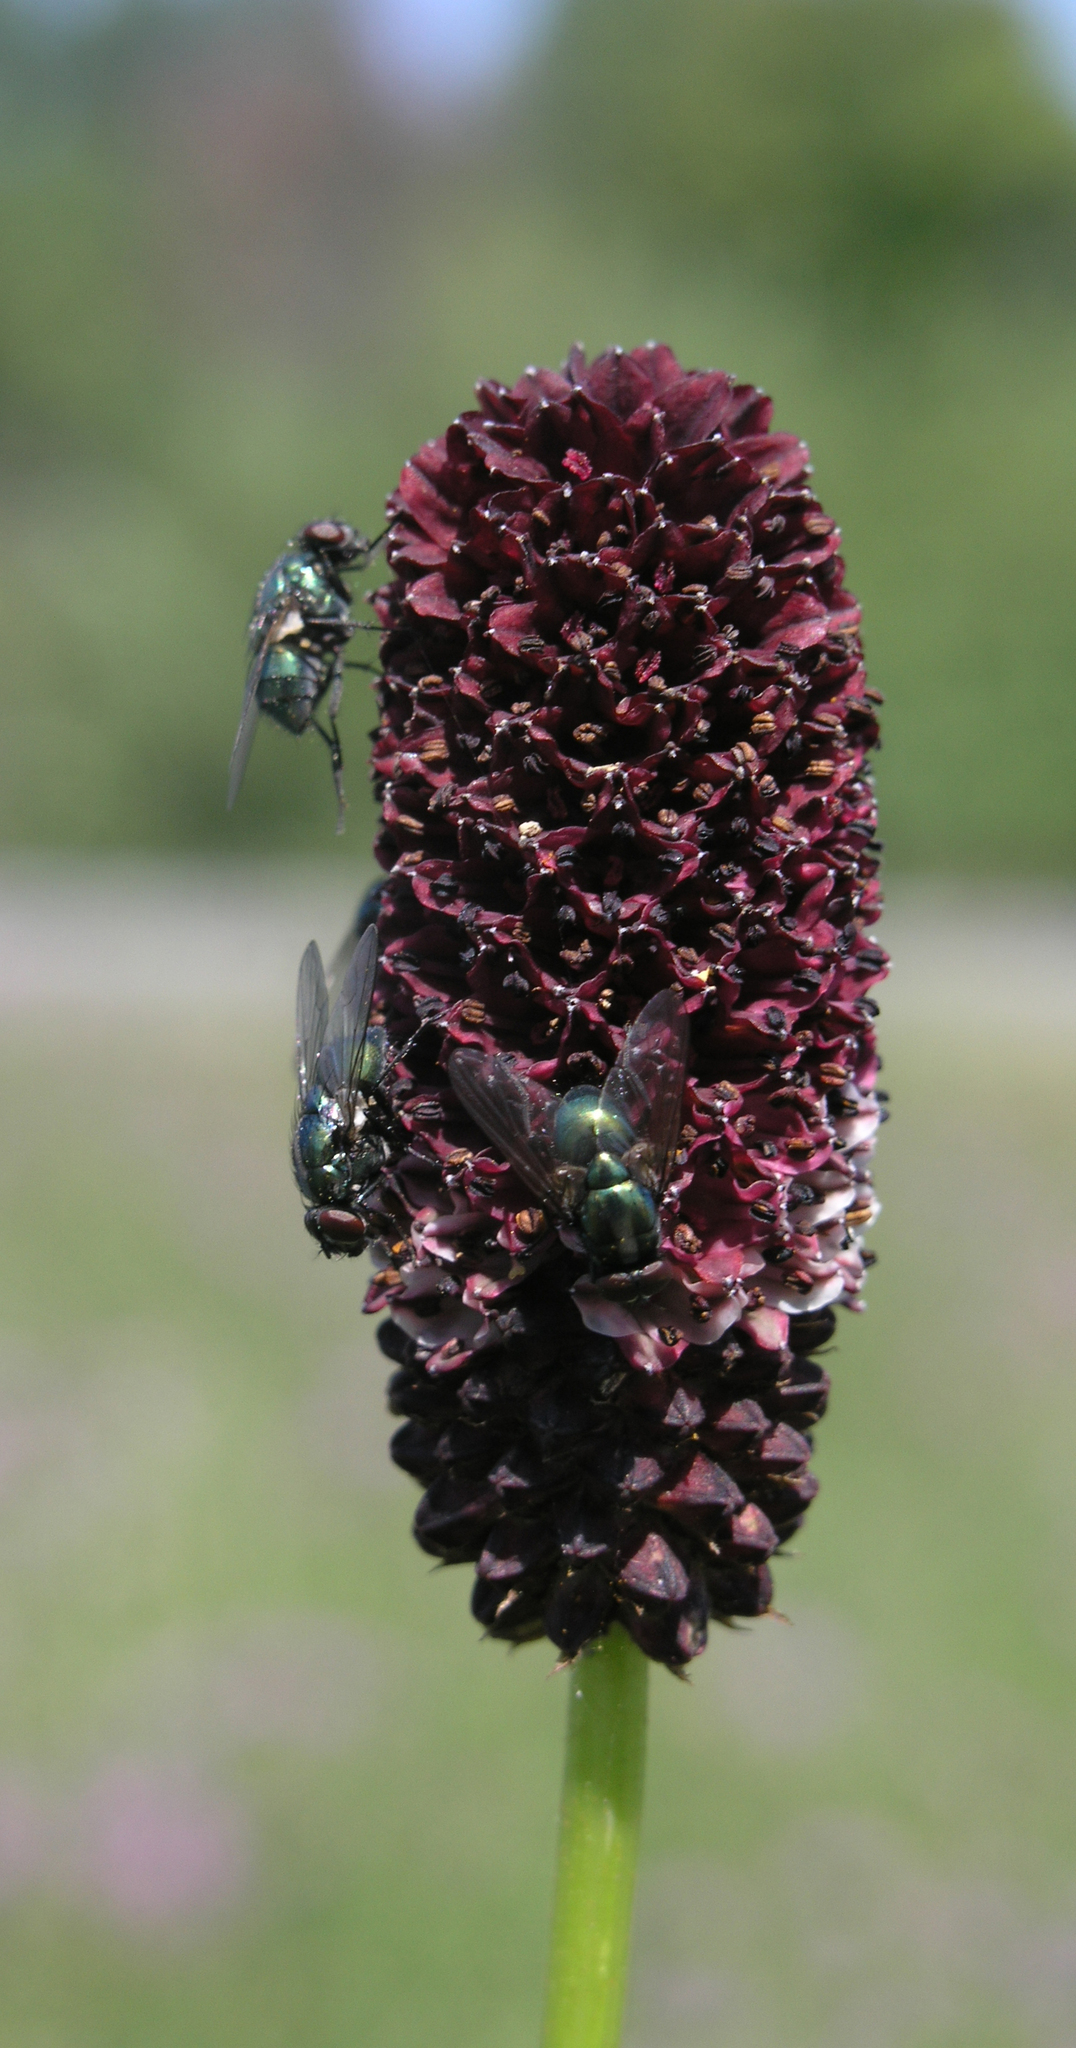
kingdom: Plantae
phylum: Tracheophyta
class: Magnoliopsida
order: Rosales
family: Rosaceae
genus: Sanguisorba
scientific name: Sanguisorba officinalis
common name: Great burnet
